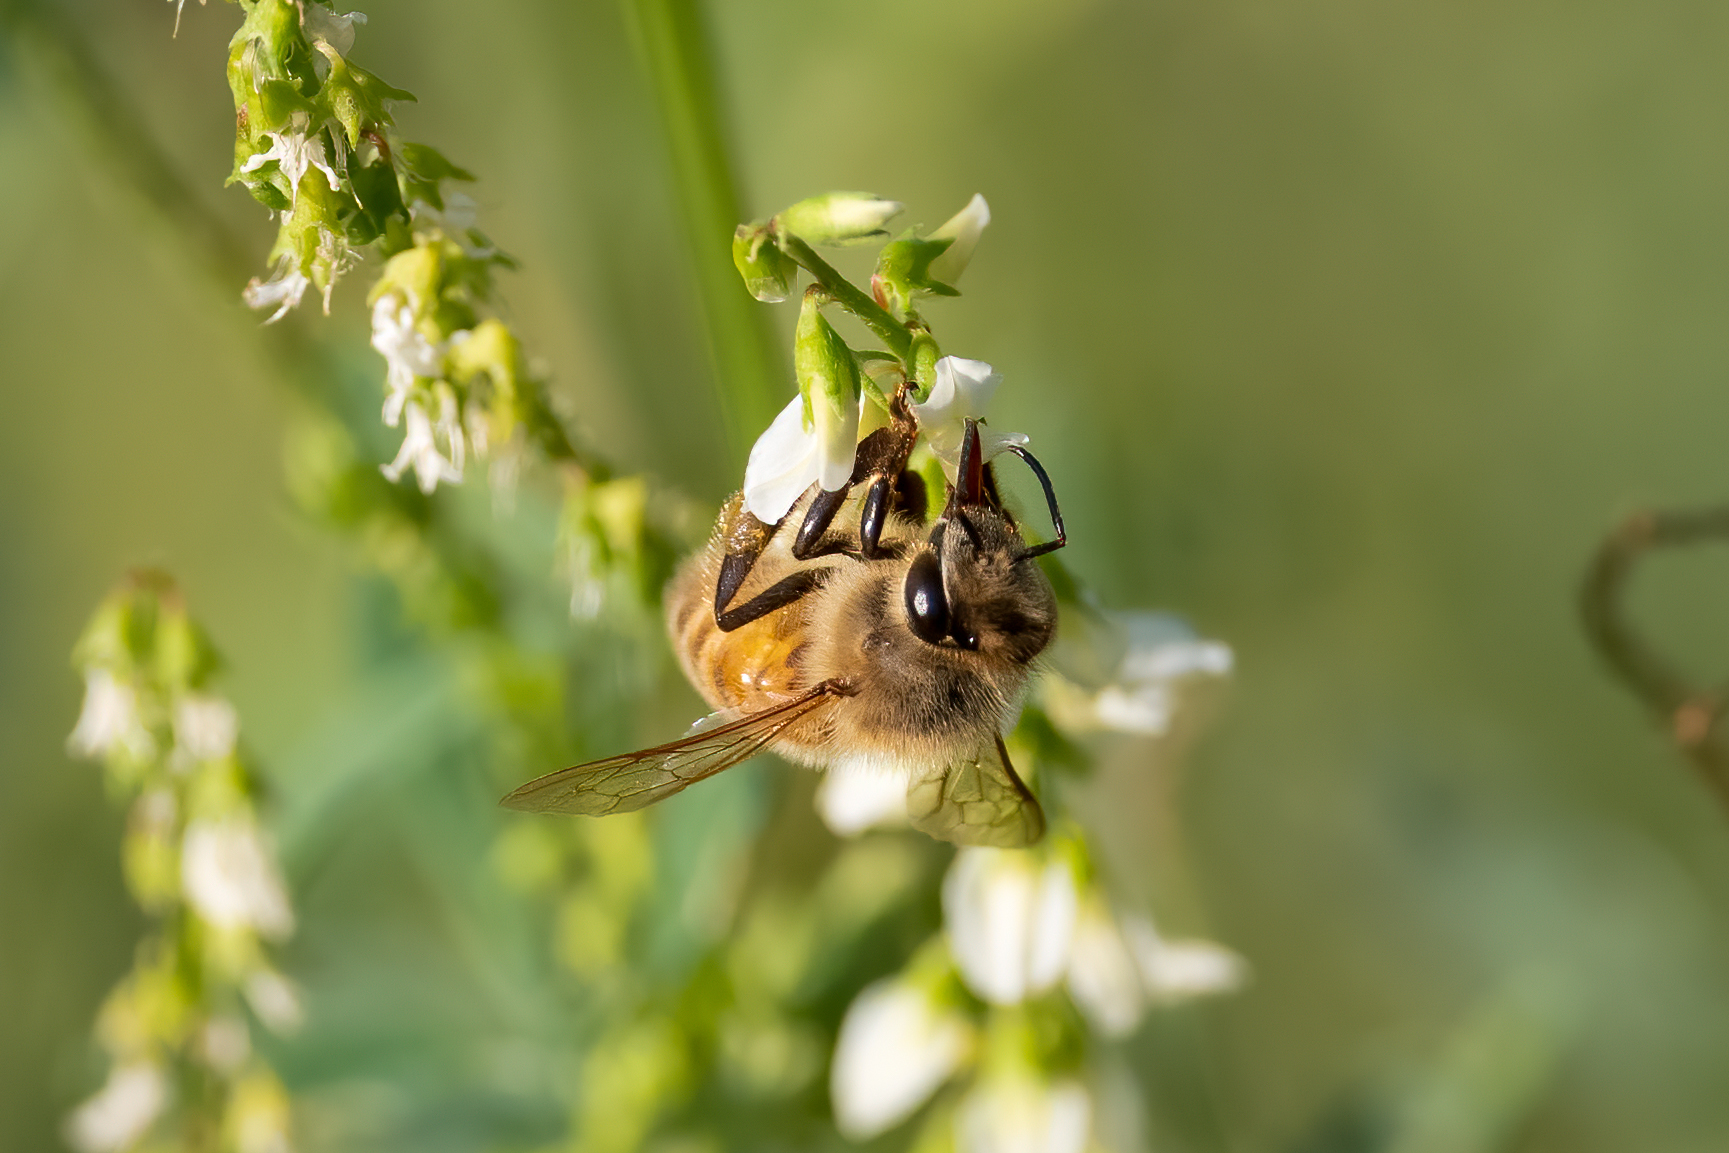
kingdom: Animalia
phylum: Arthropoda
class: Insecta
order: Hymenoptera
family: Apidae
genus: Apis
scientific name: Apis mellifera
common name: Honey bee
